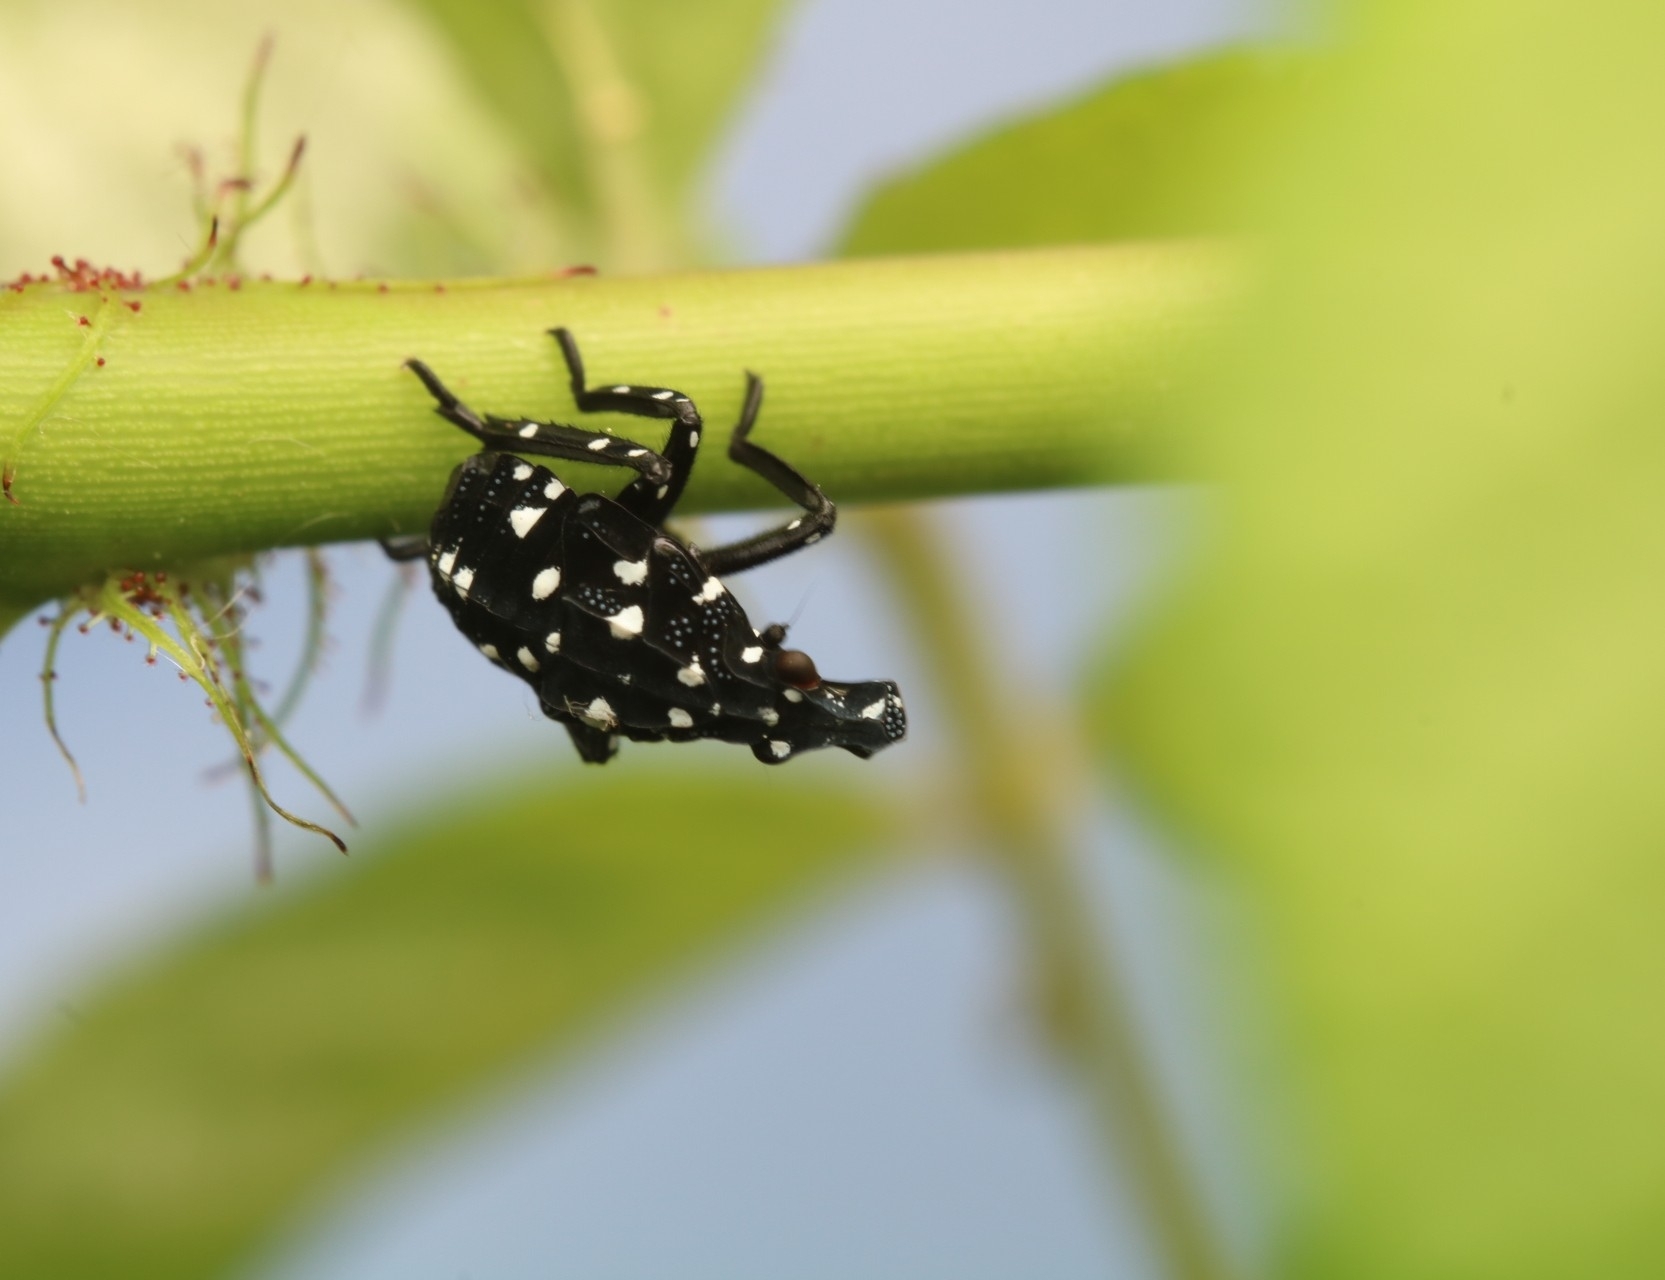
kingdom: Animalia
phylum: Arthropoda
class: Insecta
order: Hemiptera
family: Fulgoridae
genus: Lycorma
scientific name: Lycorma delicatula
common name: Spotted lanternfly
